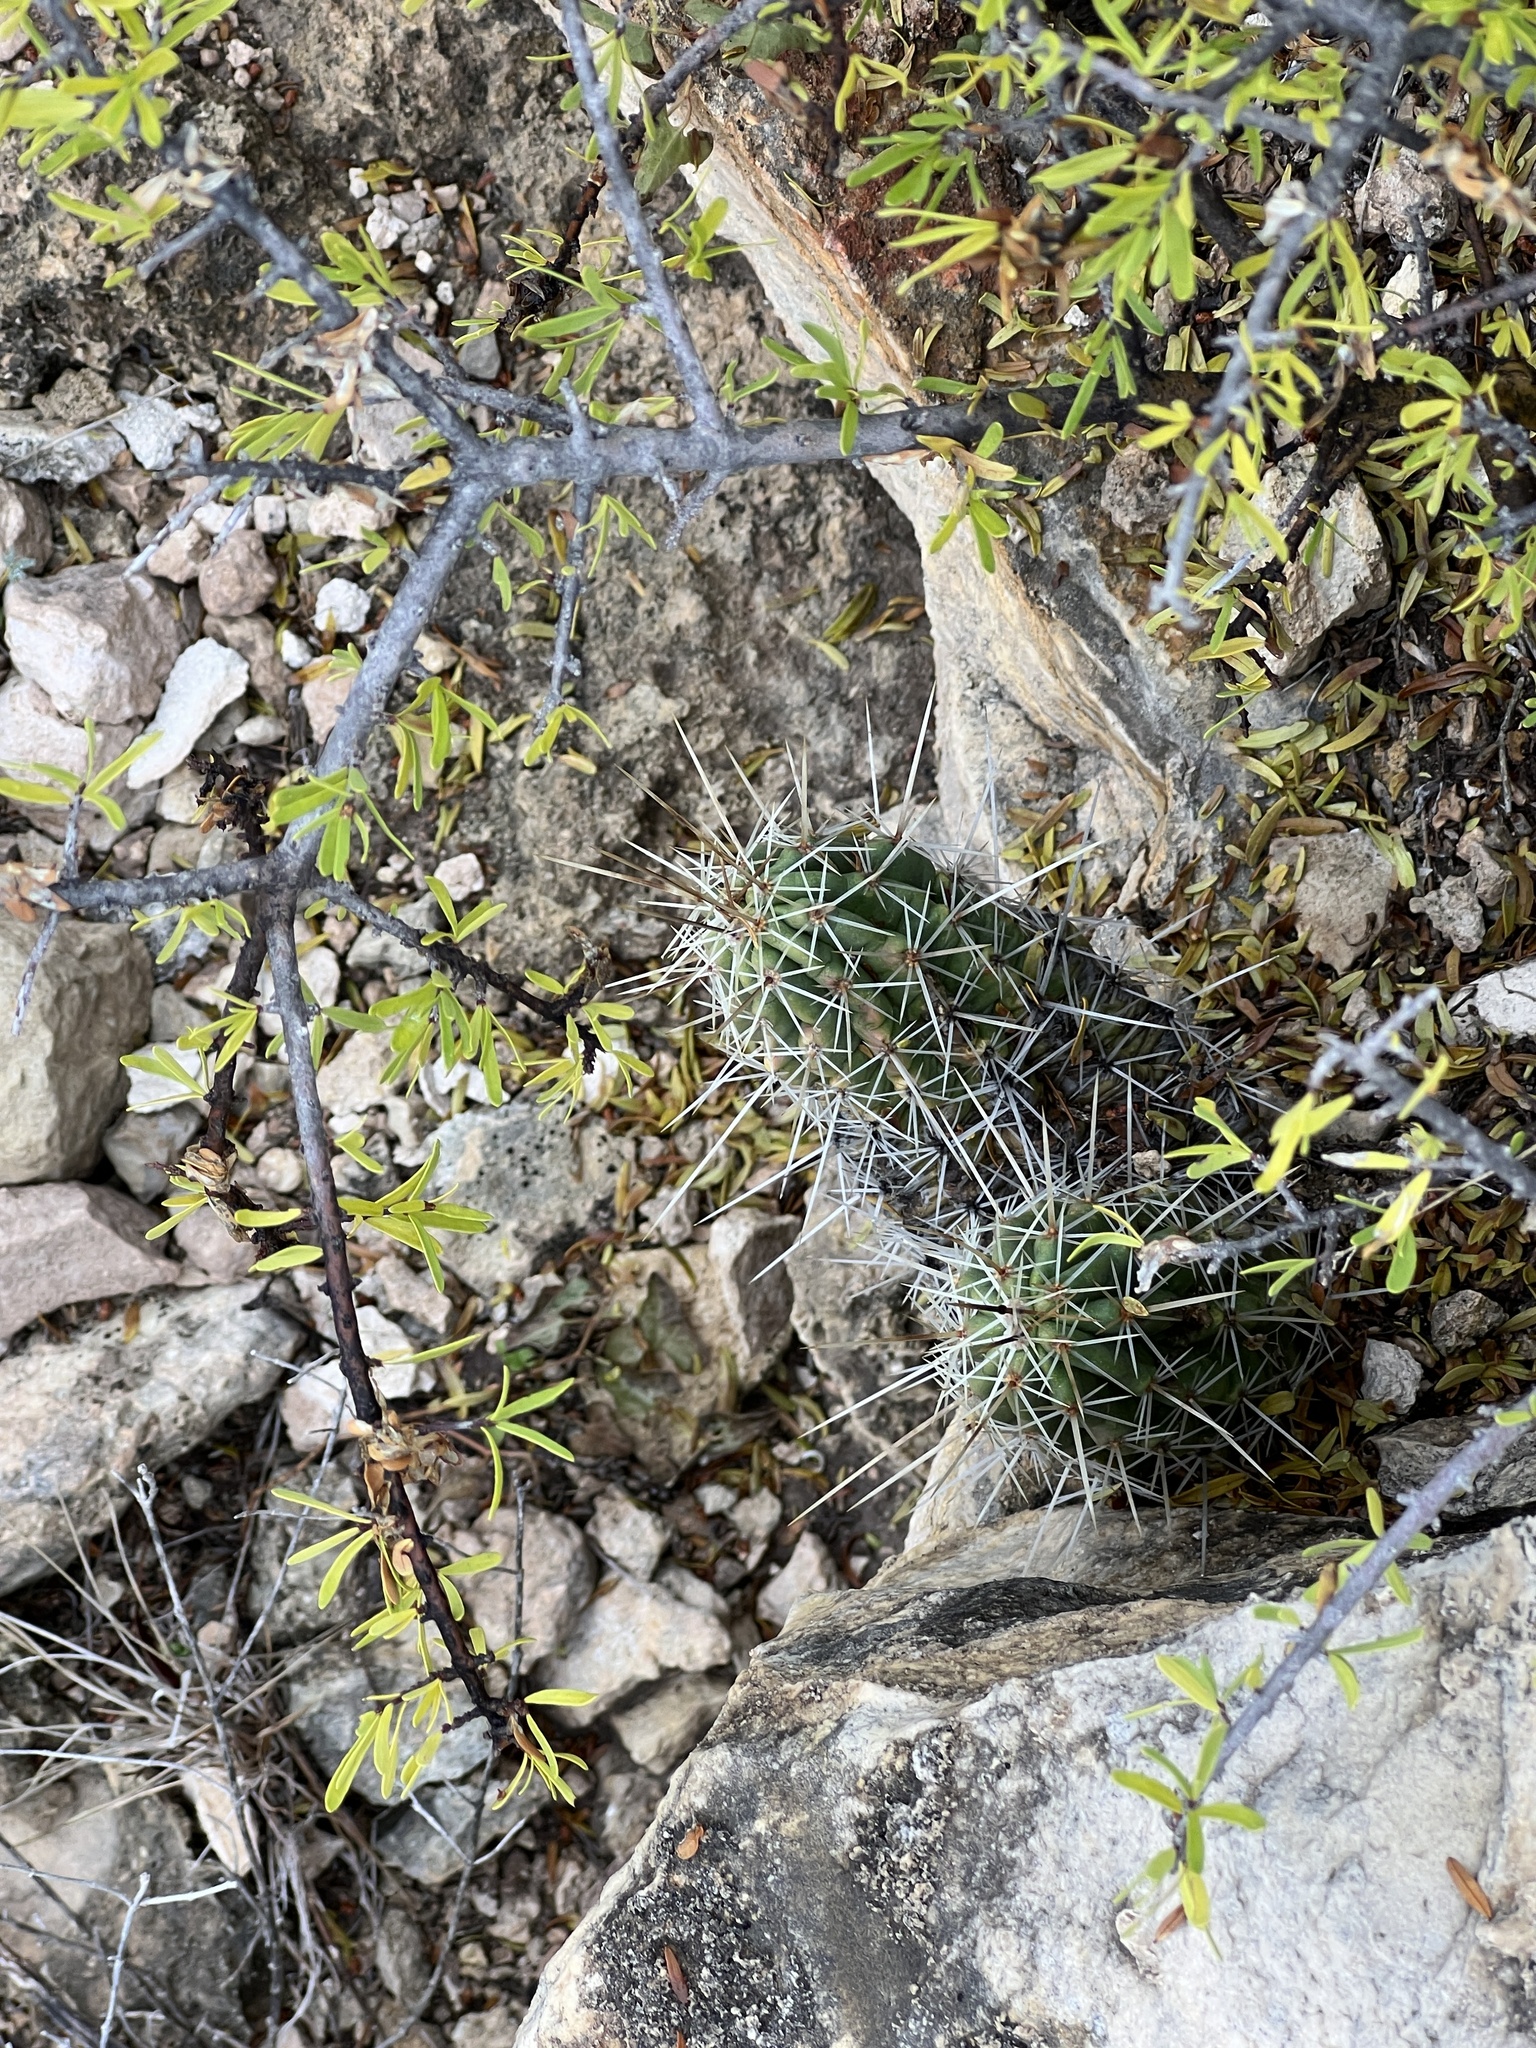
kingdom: Plantae
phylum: Tracheophyta
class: Magnoliopsida
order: Caryophyllales
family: Cactaceae
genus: Echinocereus
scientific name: Echinocereus enneacanthus
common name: Pitaya
